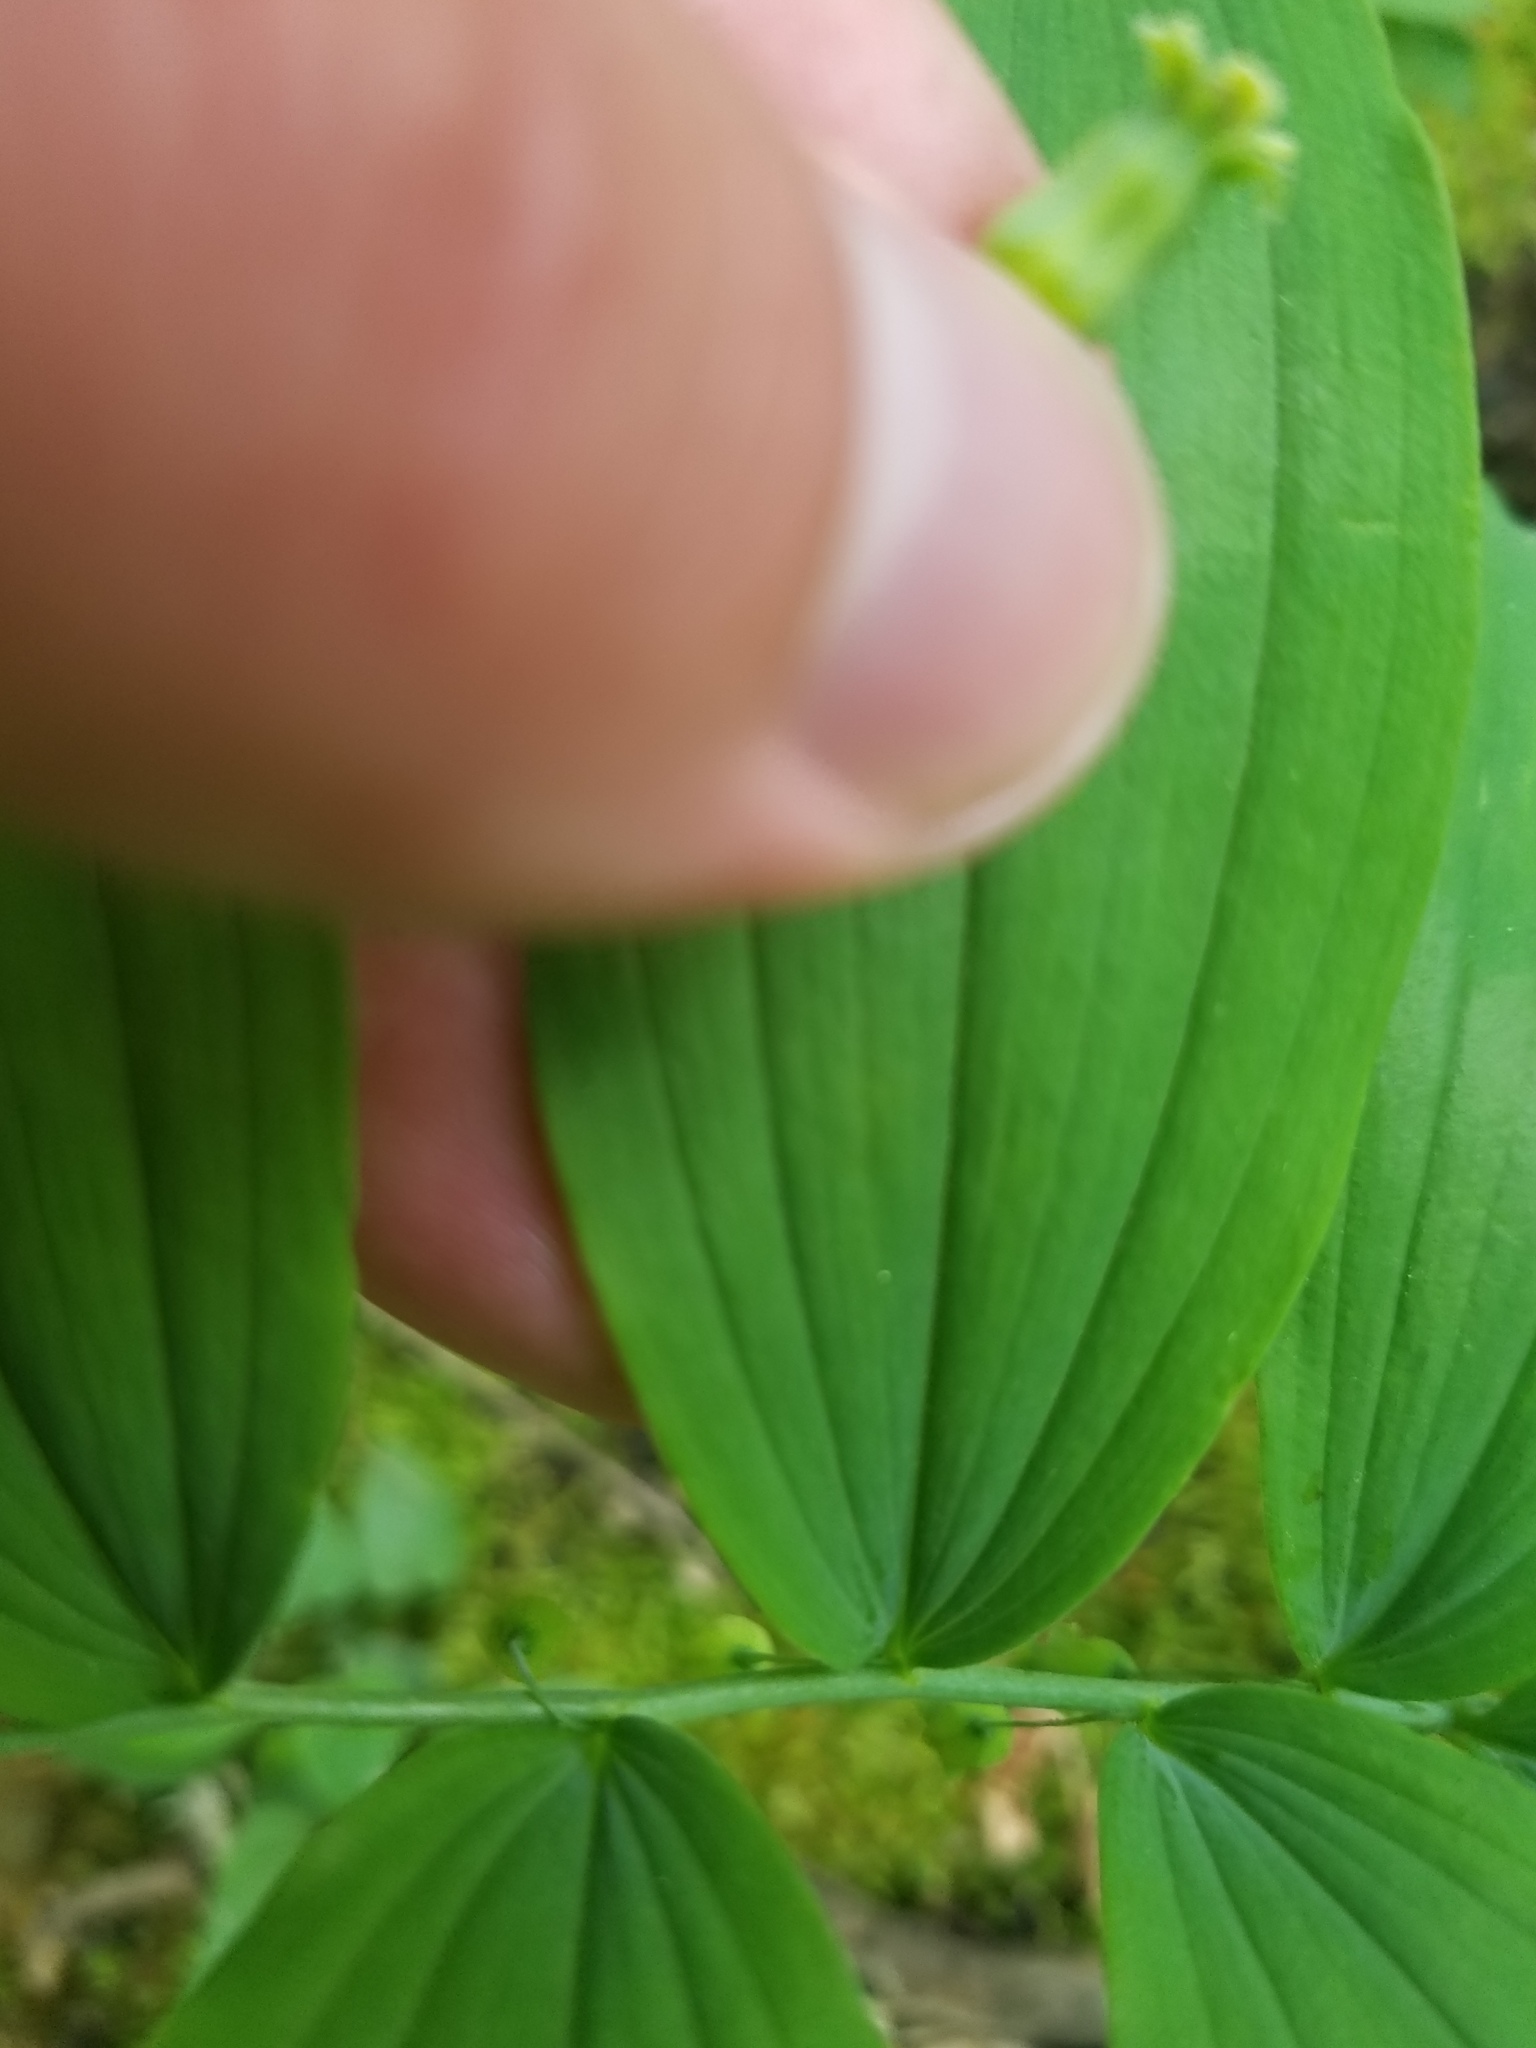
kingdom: Plantae
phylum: Tracheophyta
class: Liliopsida
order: Asparagales
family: Asparagaceae
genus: Polygonatum
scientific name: Polygonatum pubescens
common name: Downy solomon's seal
